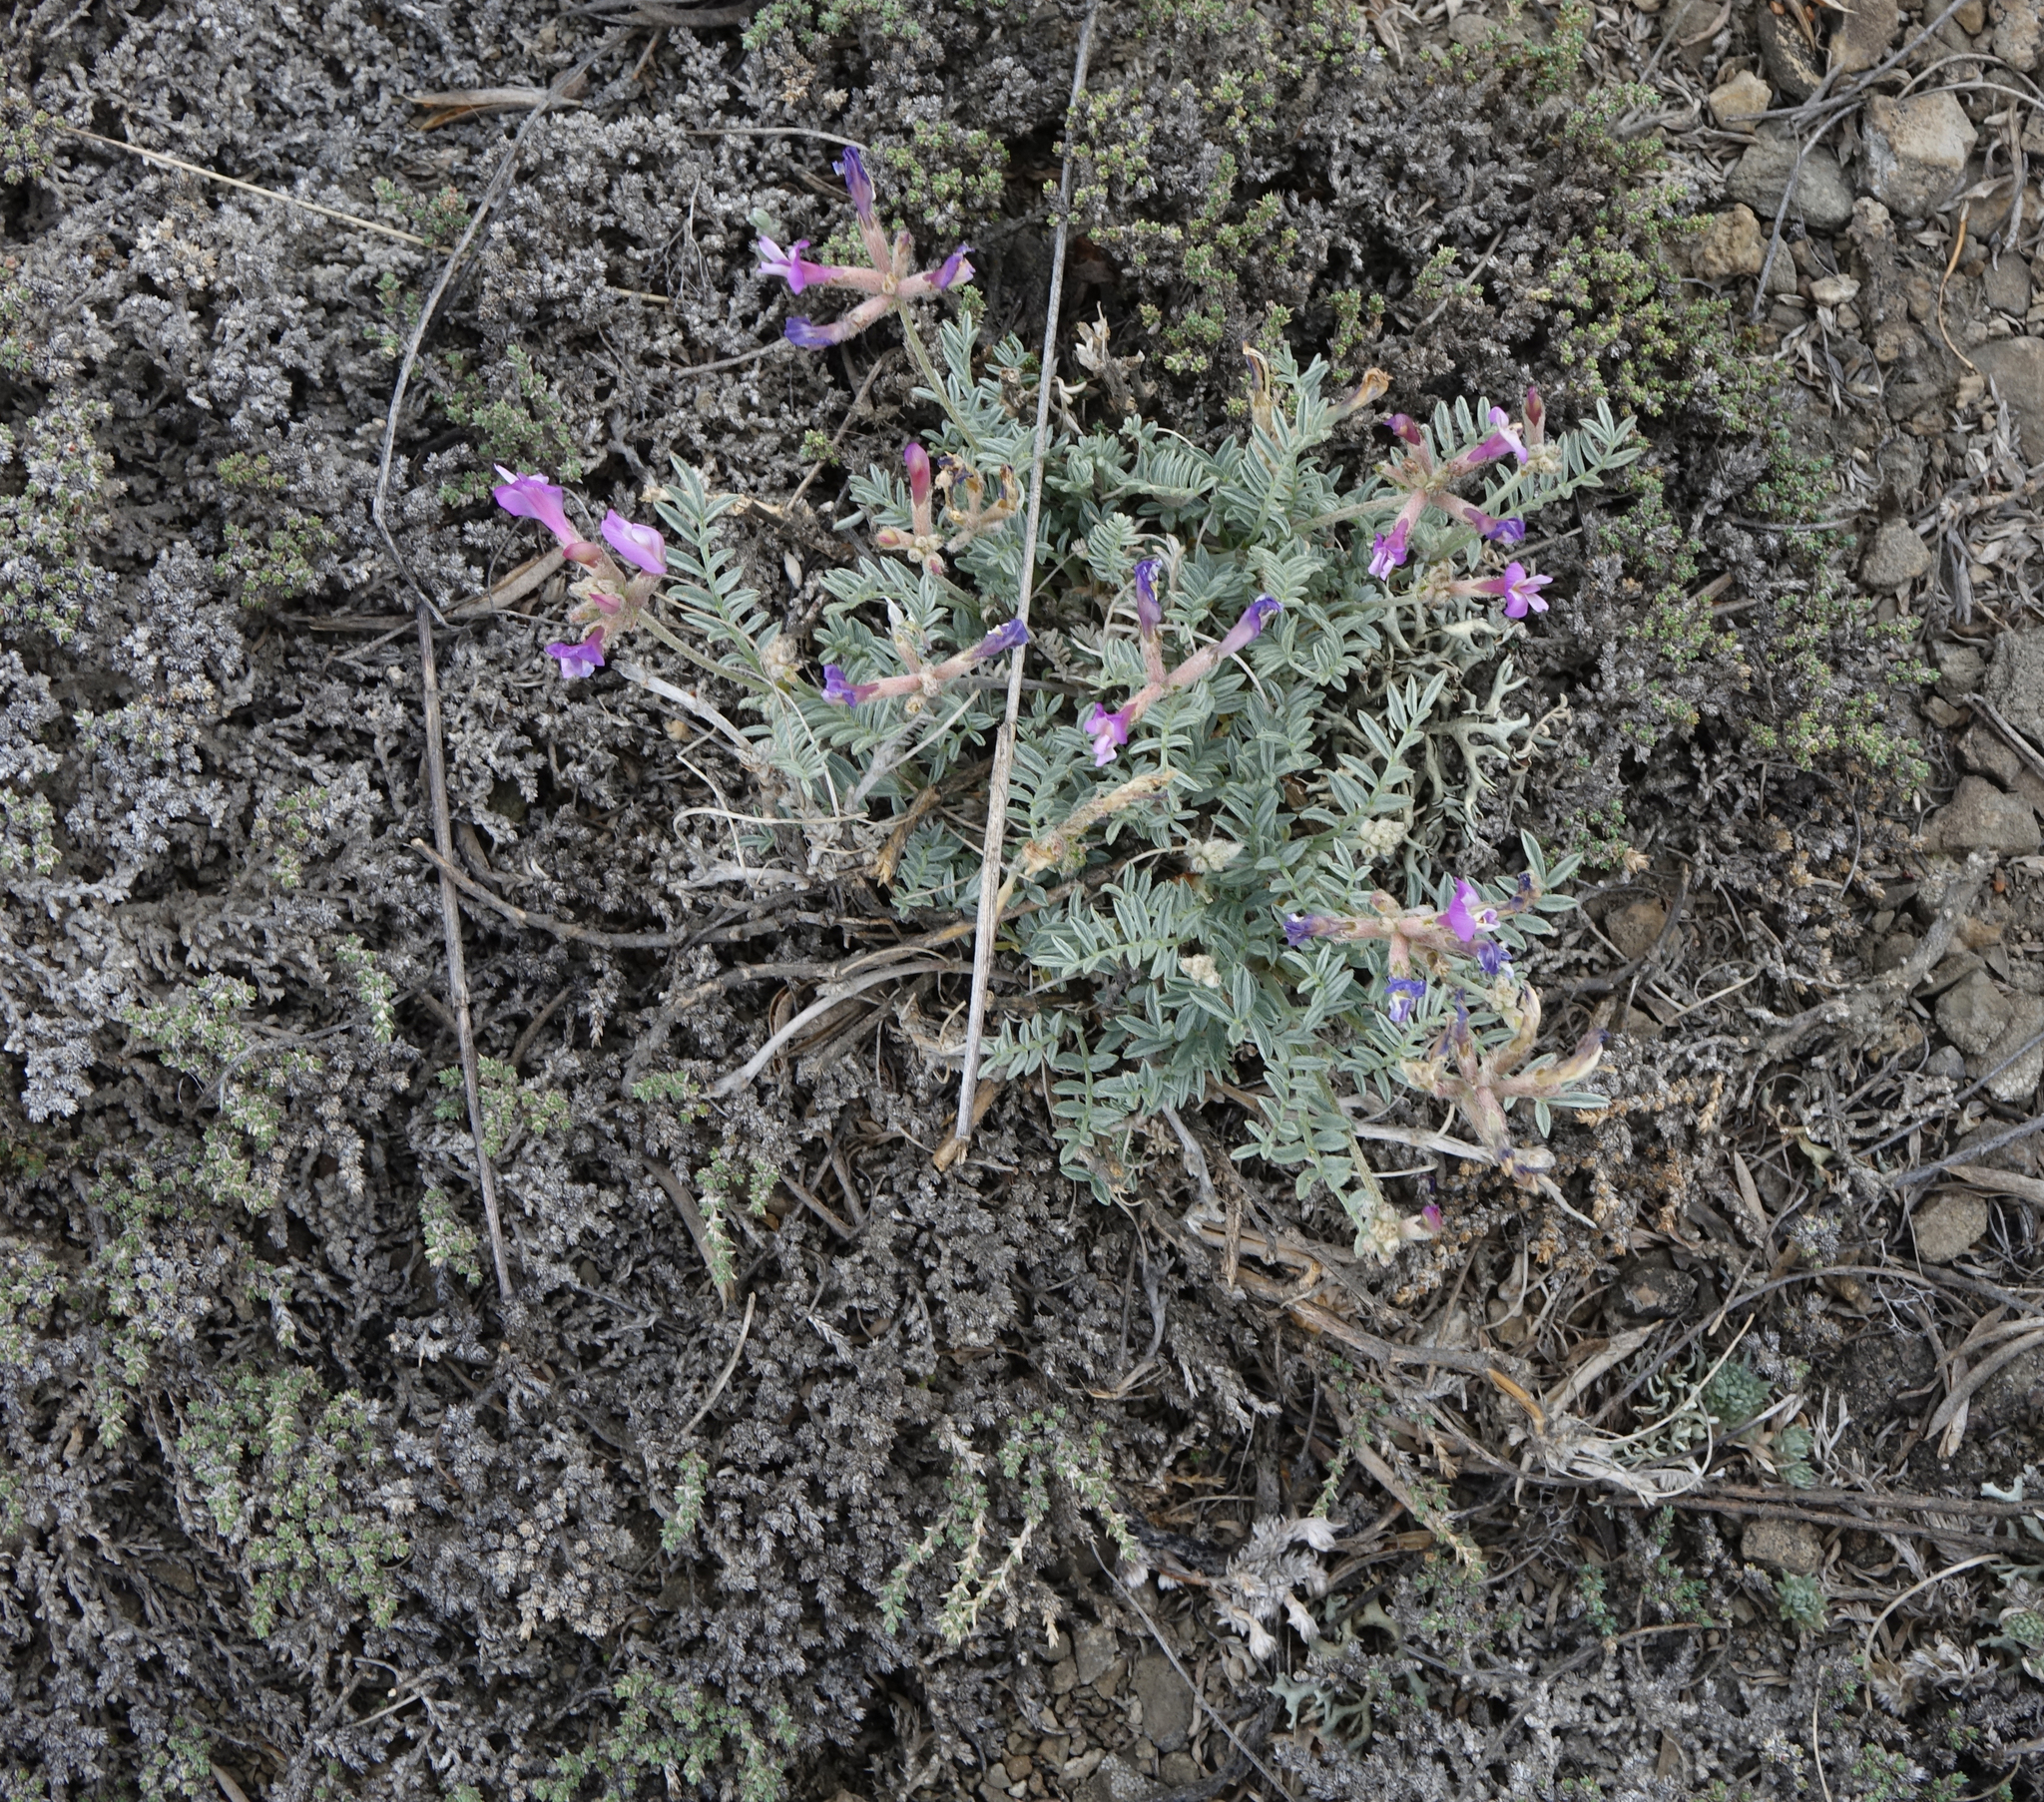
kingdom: Plantae
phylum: Tracheophyta
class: Magnoliopsida
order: Fabales
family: Fabaceae
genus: Astragalus
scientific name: Astragalus stenoceras
